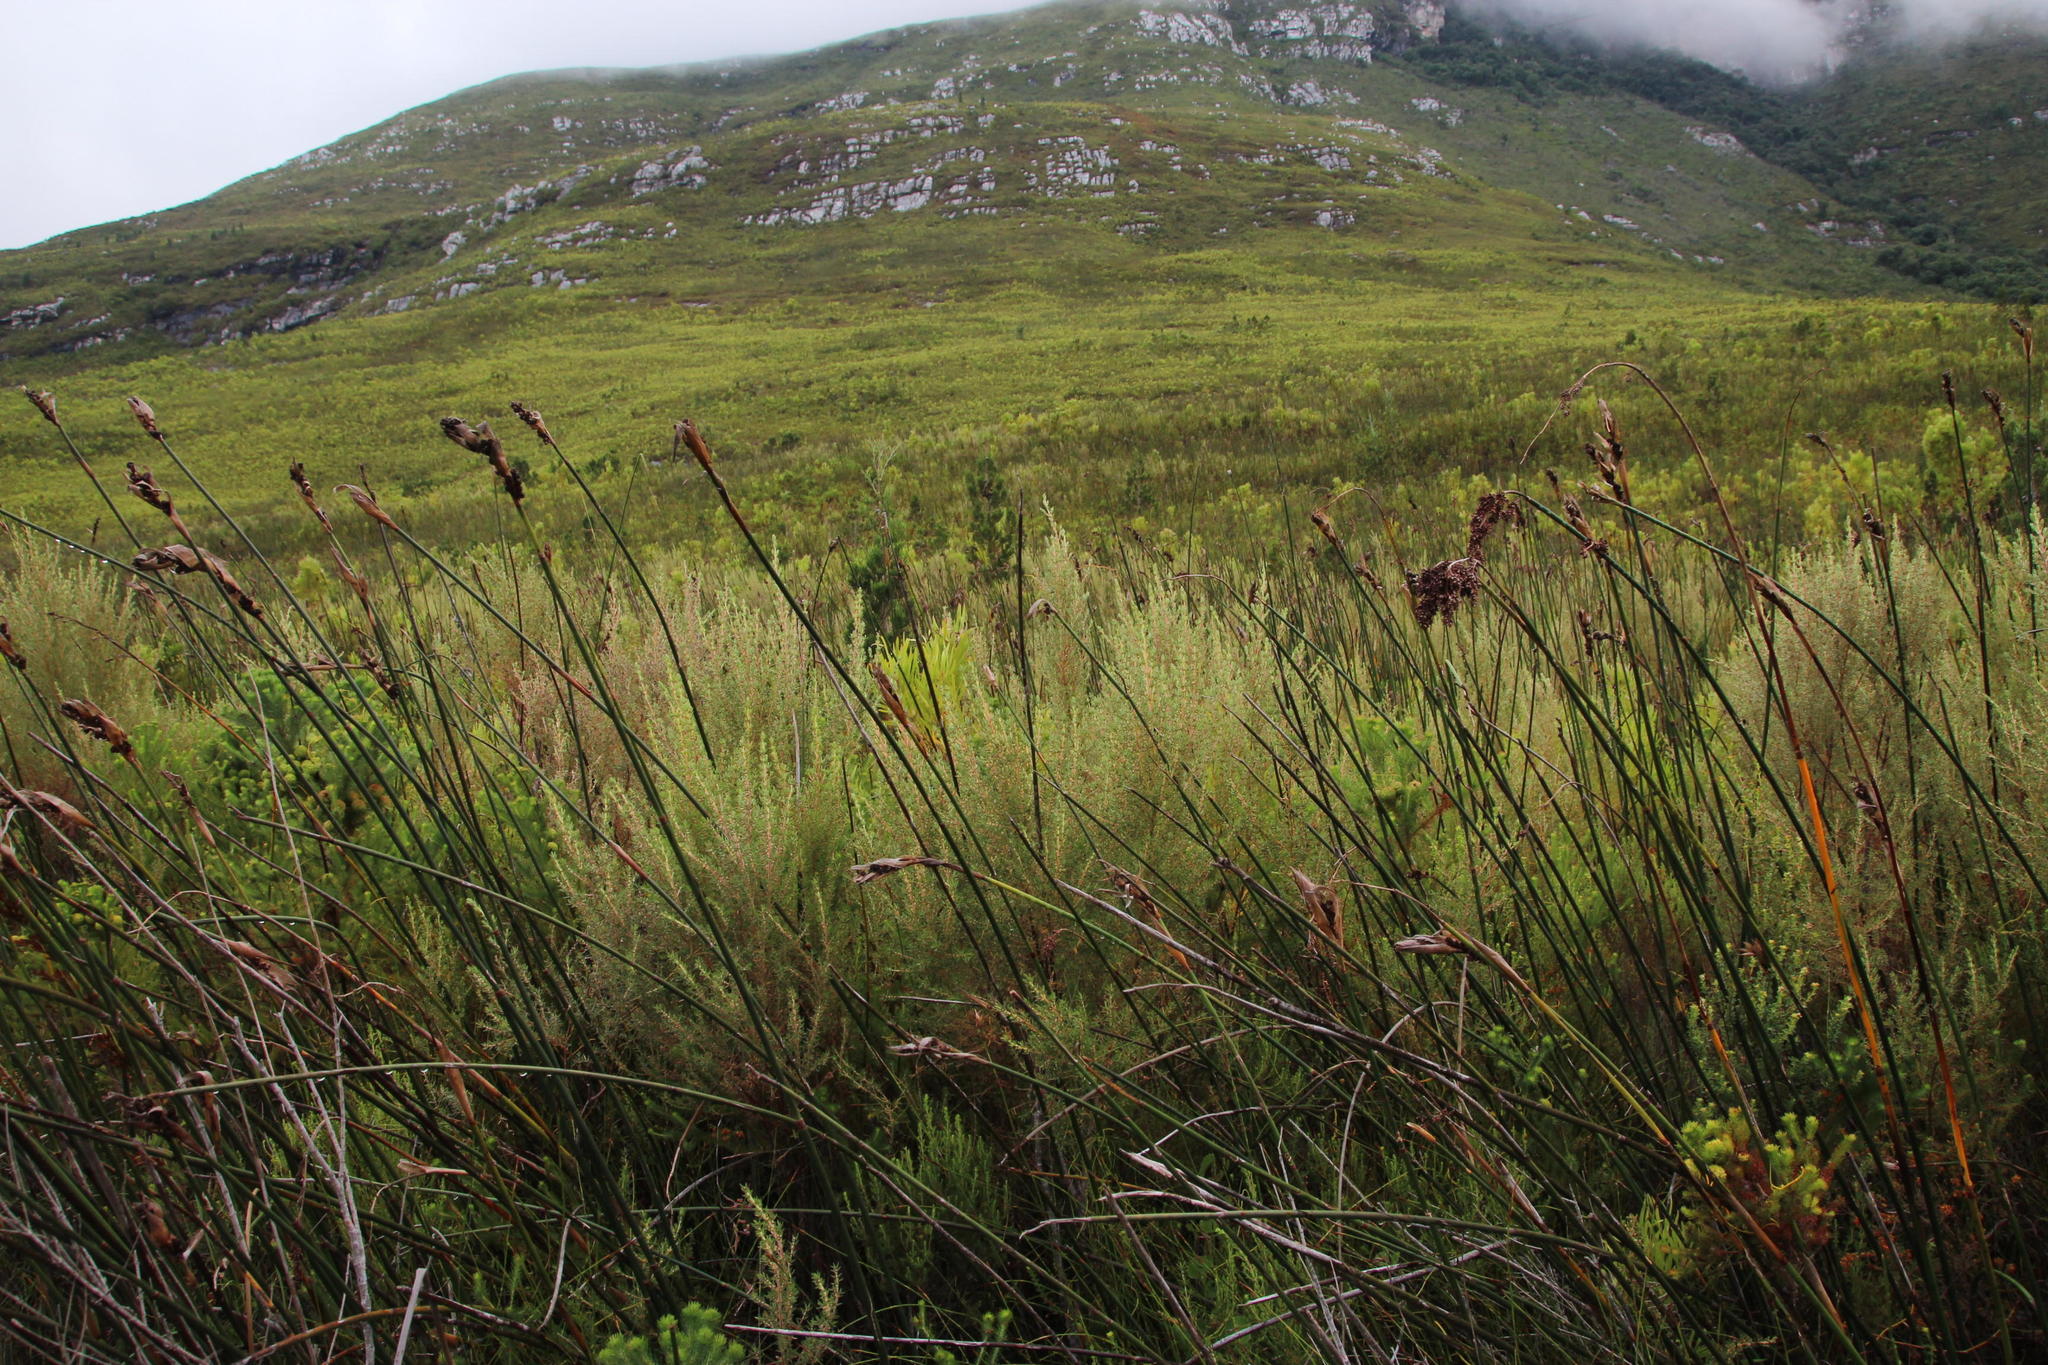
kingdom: Plantae
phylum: Tracheophyta
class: Magnoliopsida
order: Cornales
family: Grubbiaceae
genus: Grubbia
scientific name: Grubbia rosmarinifolia
